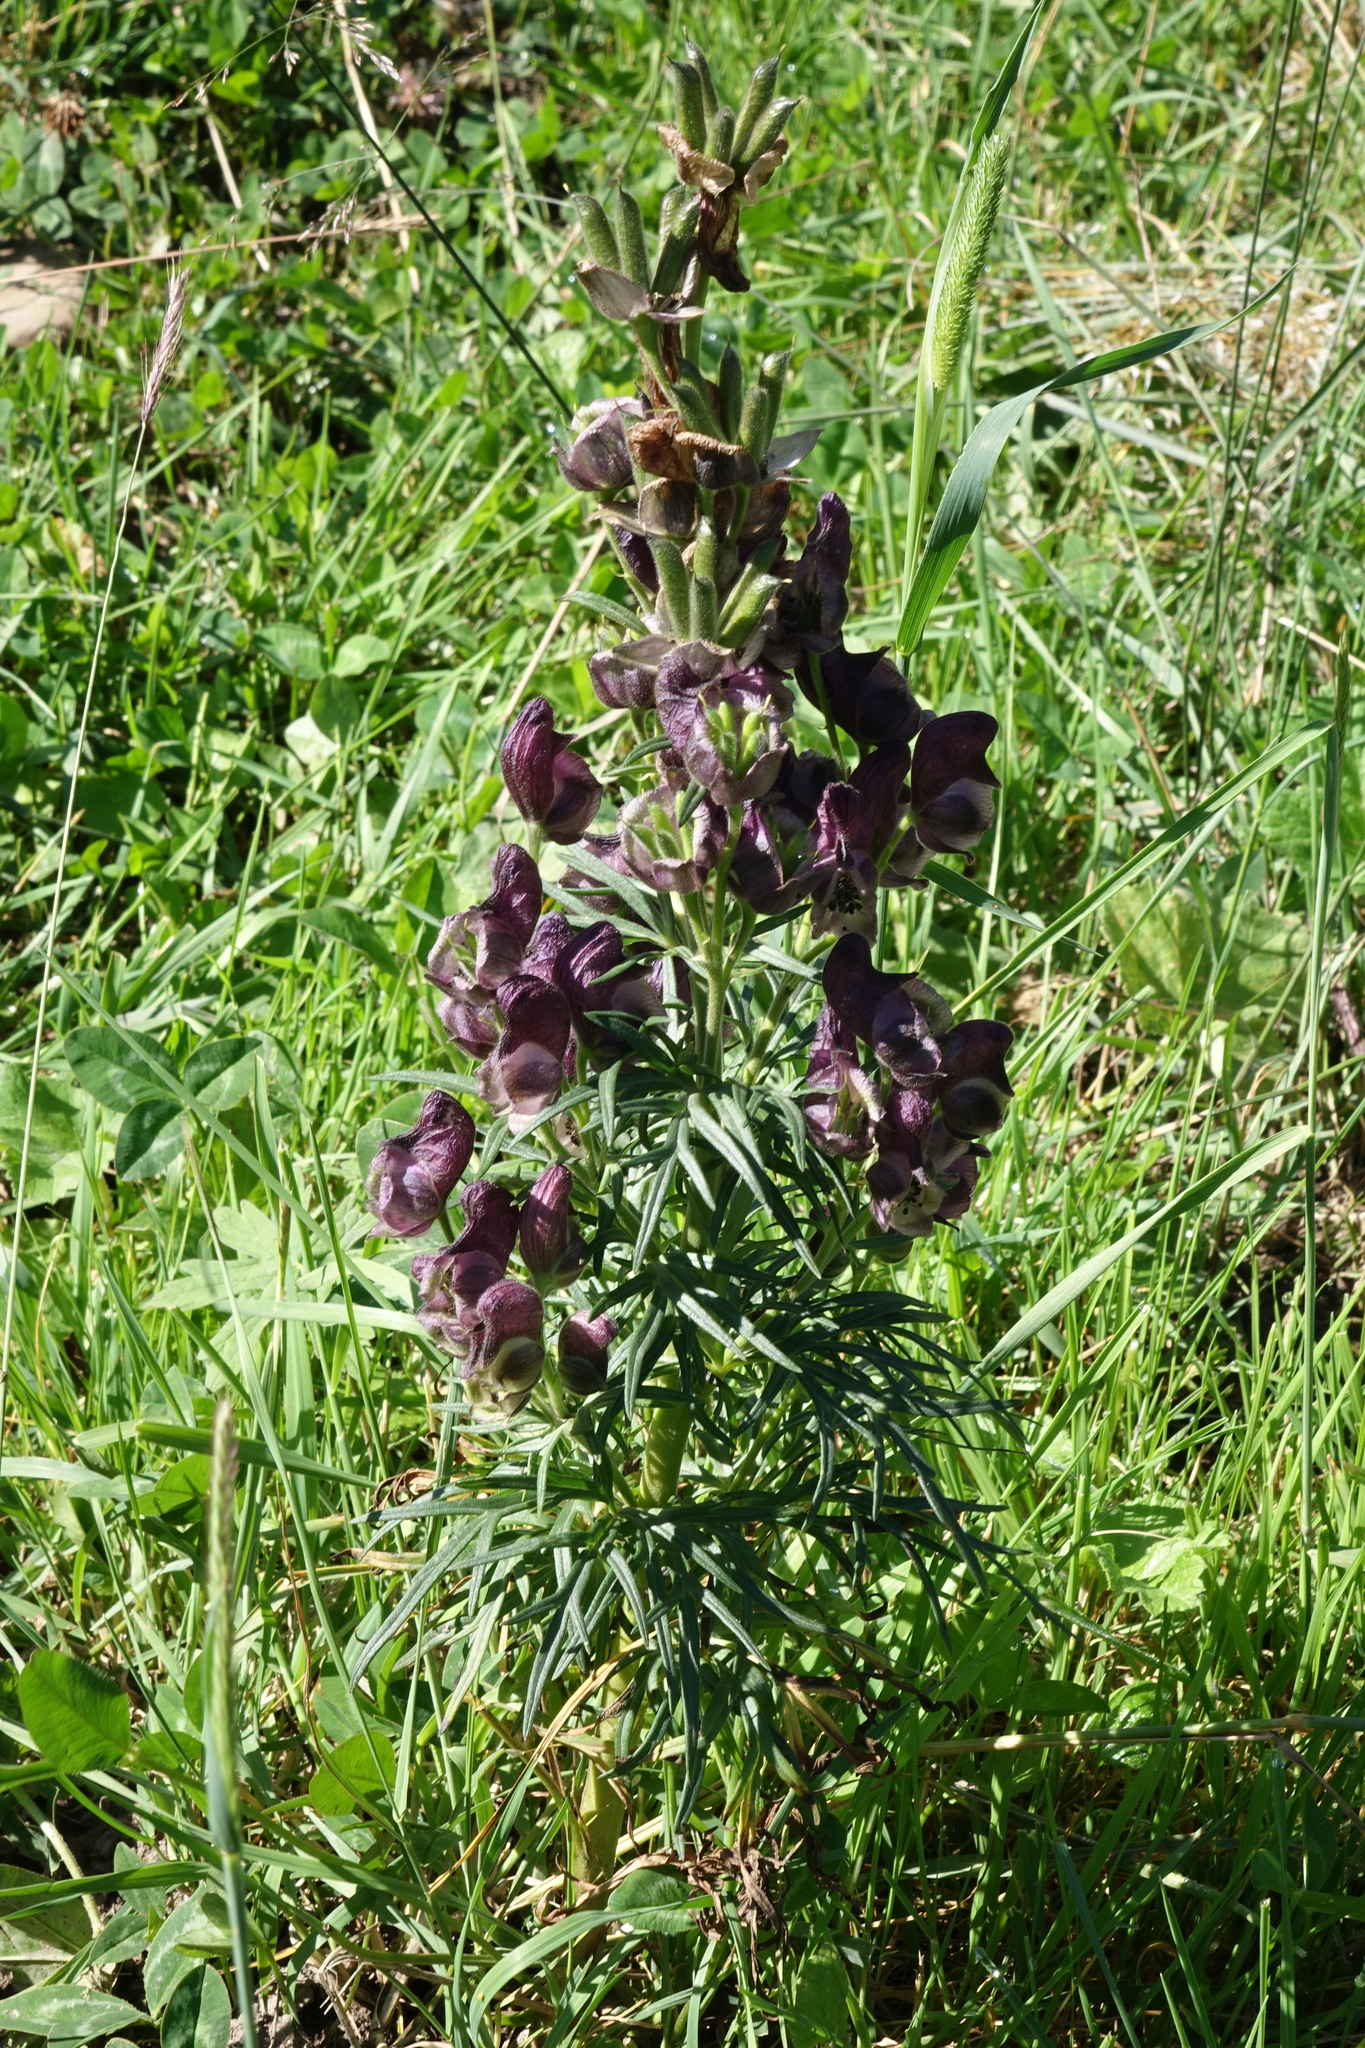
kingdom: Plantae
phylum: Tracheophyta
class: Magnoliopsida
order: Ranunculales
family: Ranunculaceae
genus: Aconitum
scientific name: Aconitum anthora
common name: Yellow monkshood
